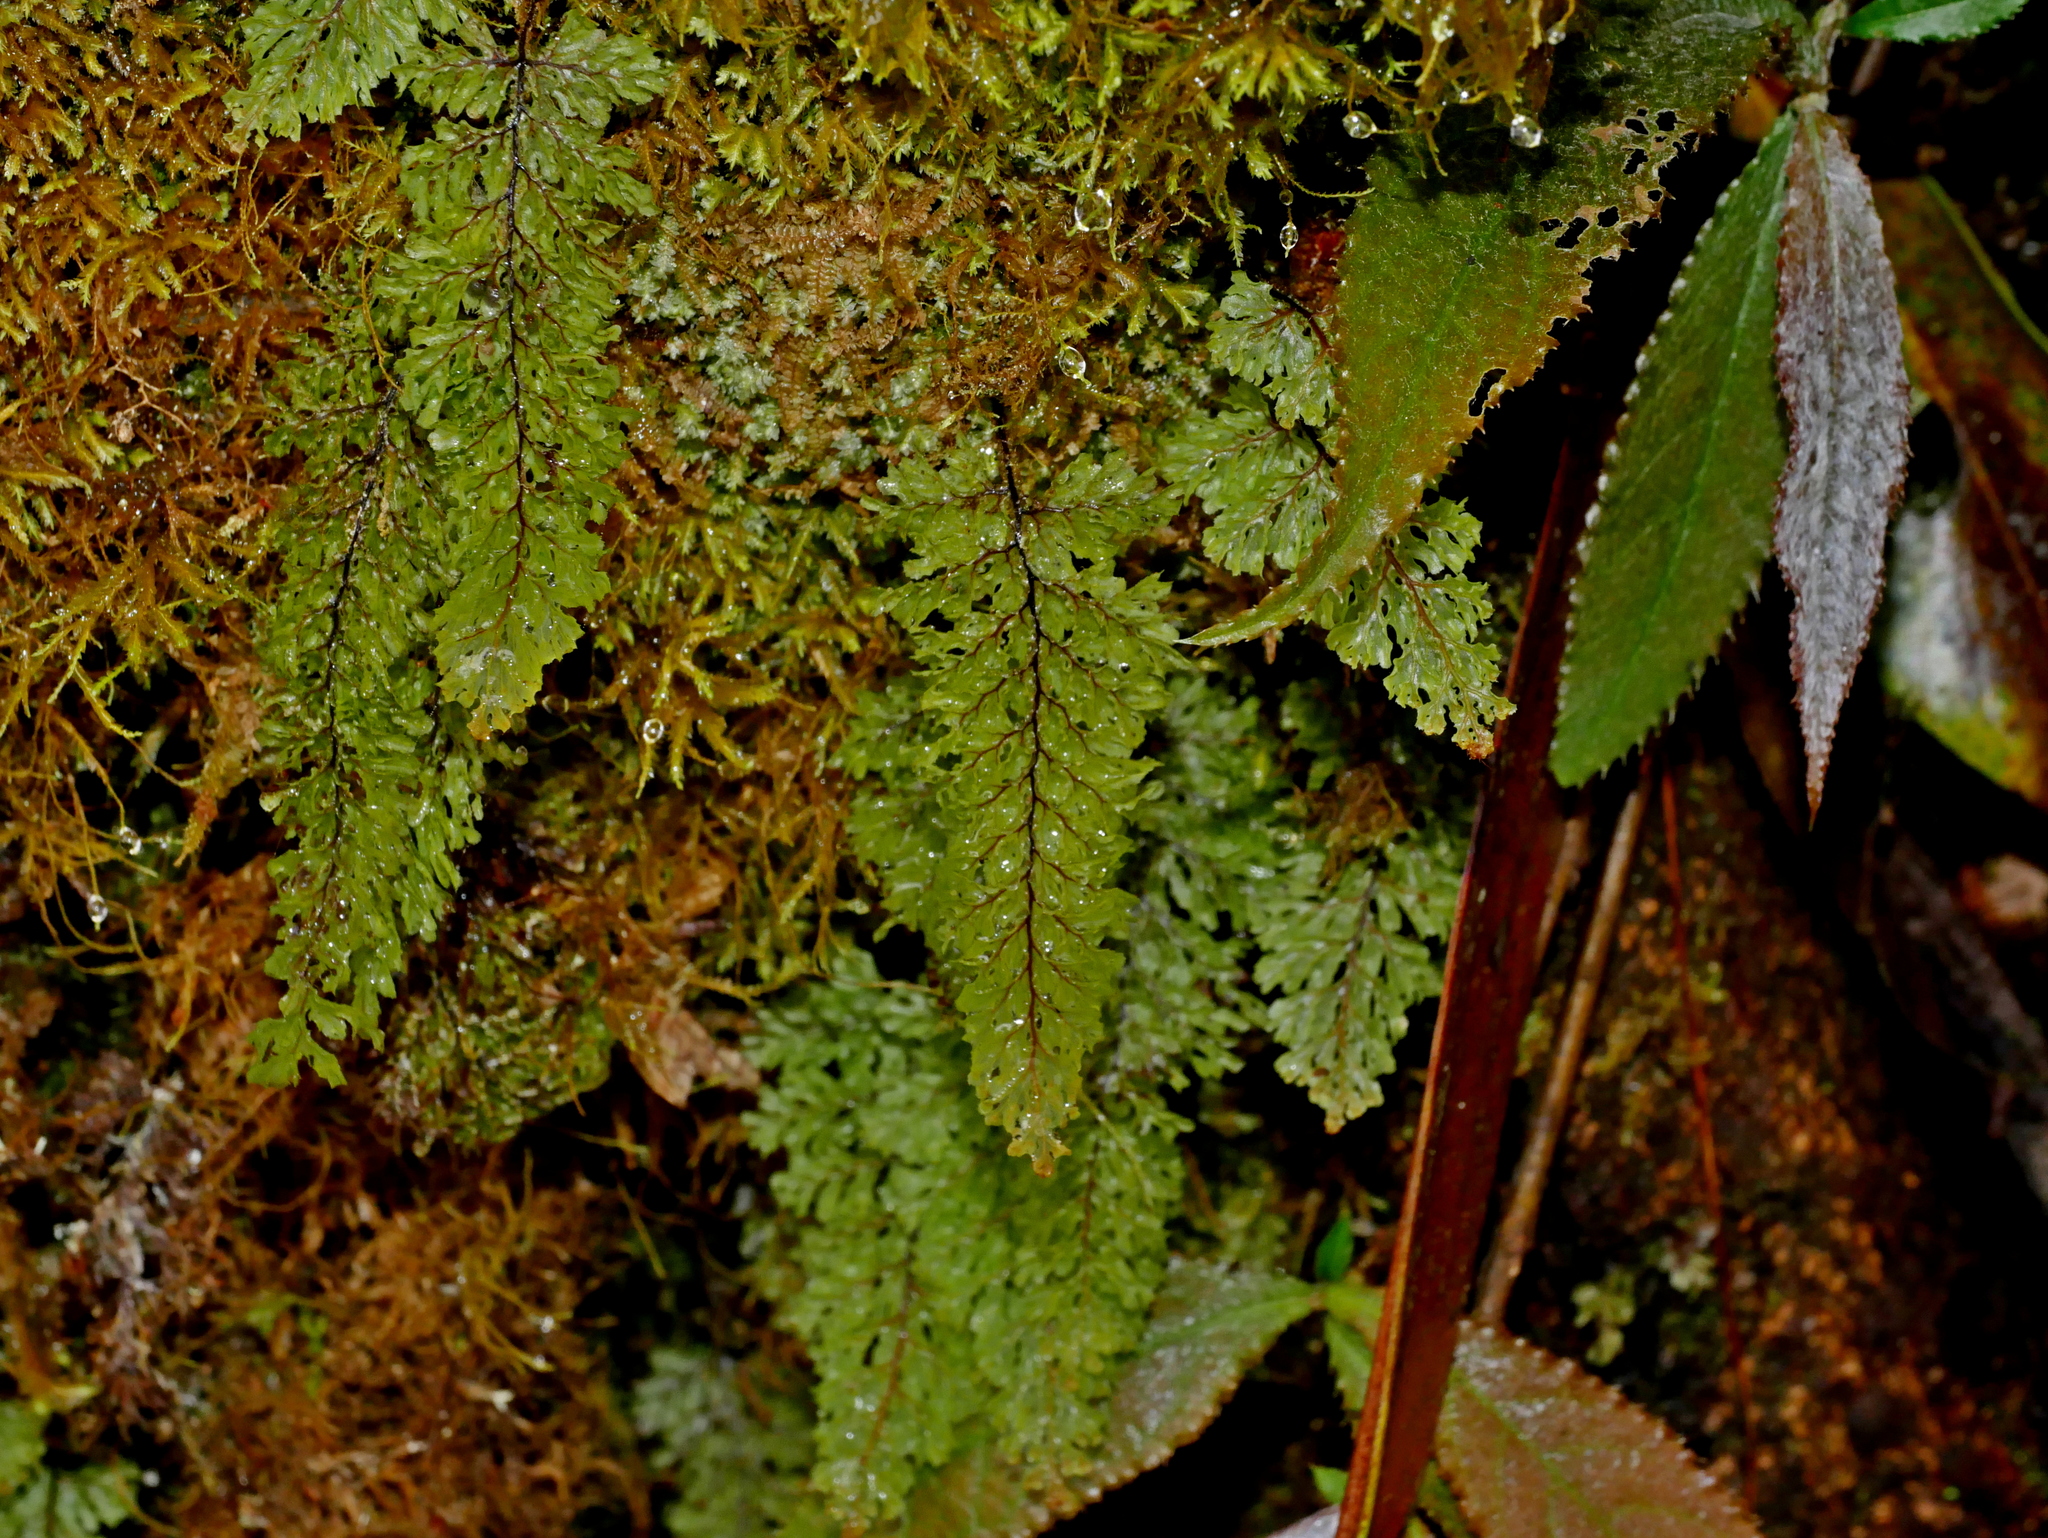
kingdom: Plantae
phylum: Tracheophyta
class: Polypodiopsida
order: Hymenophyllales
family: Hymenophyllaceae
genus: Hymenophyllum
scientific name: Hymenophyllum okadae
